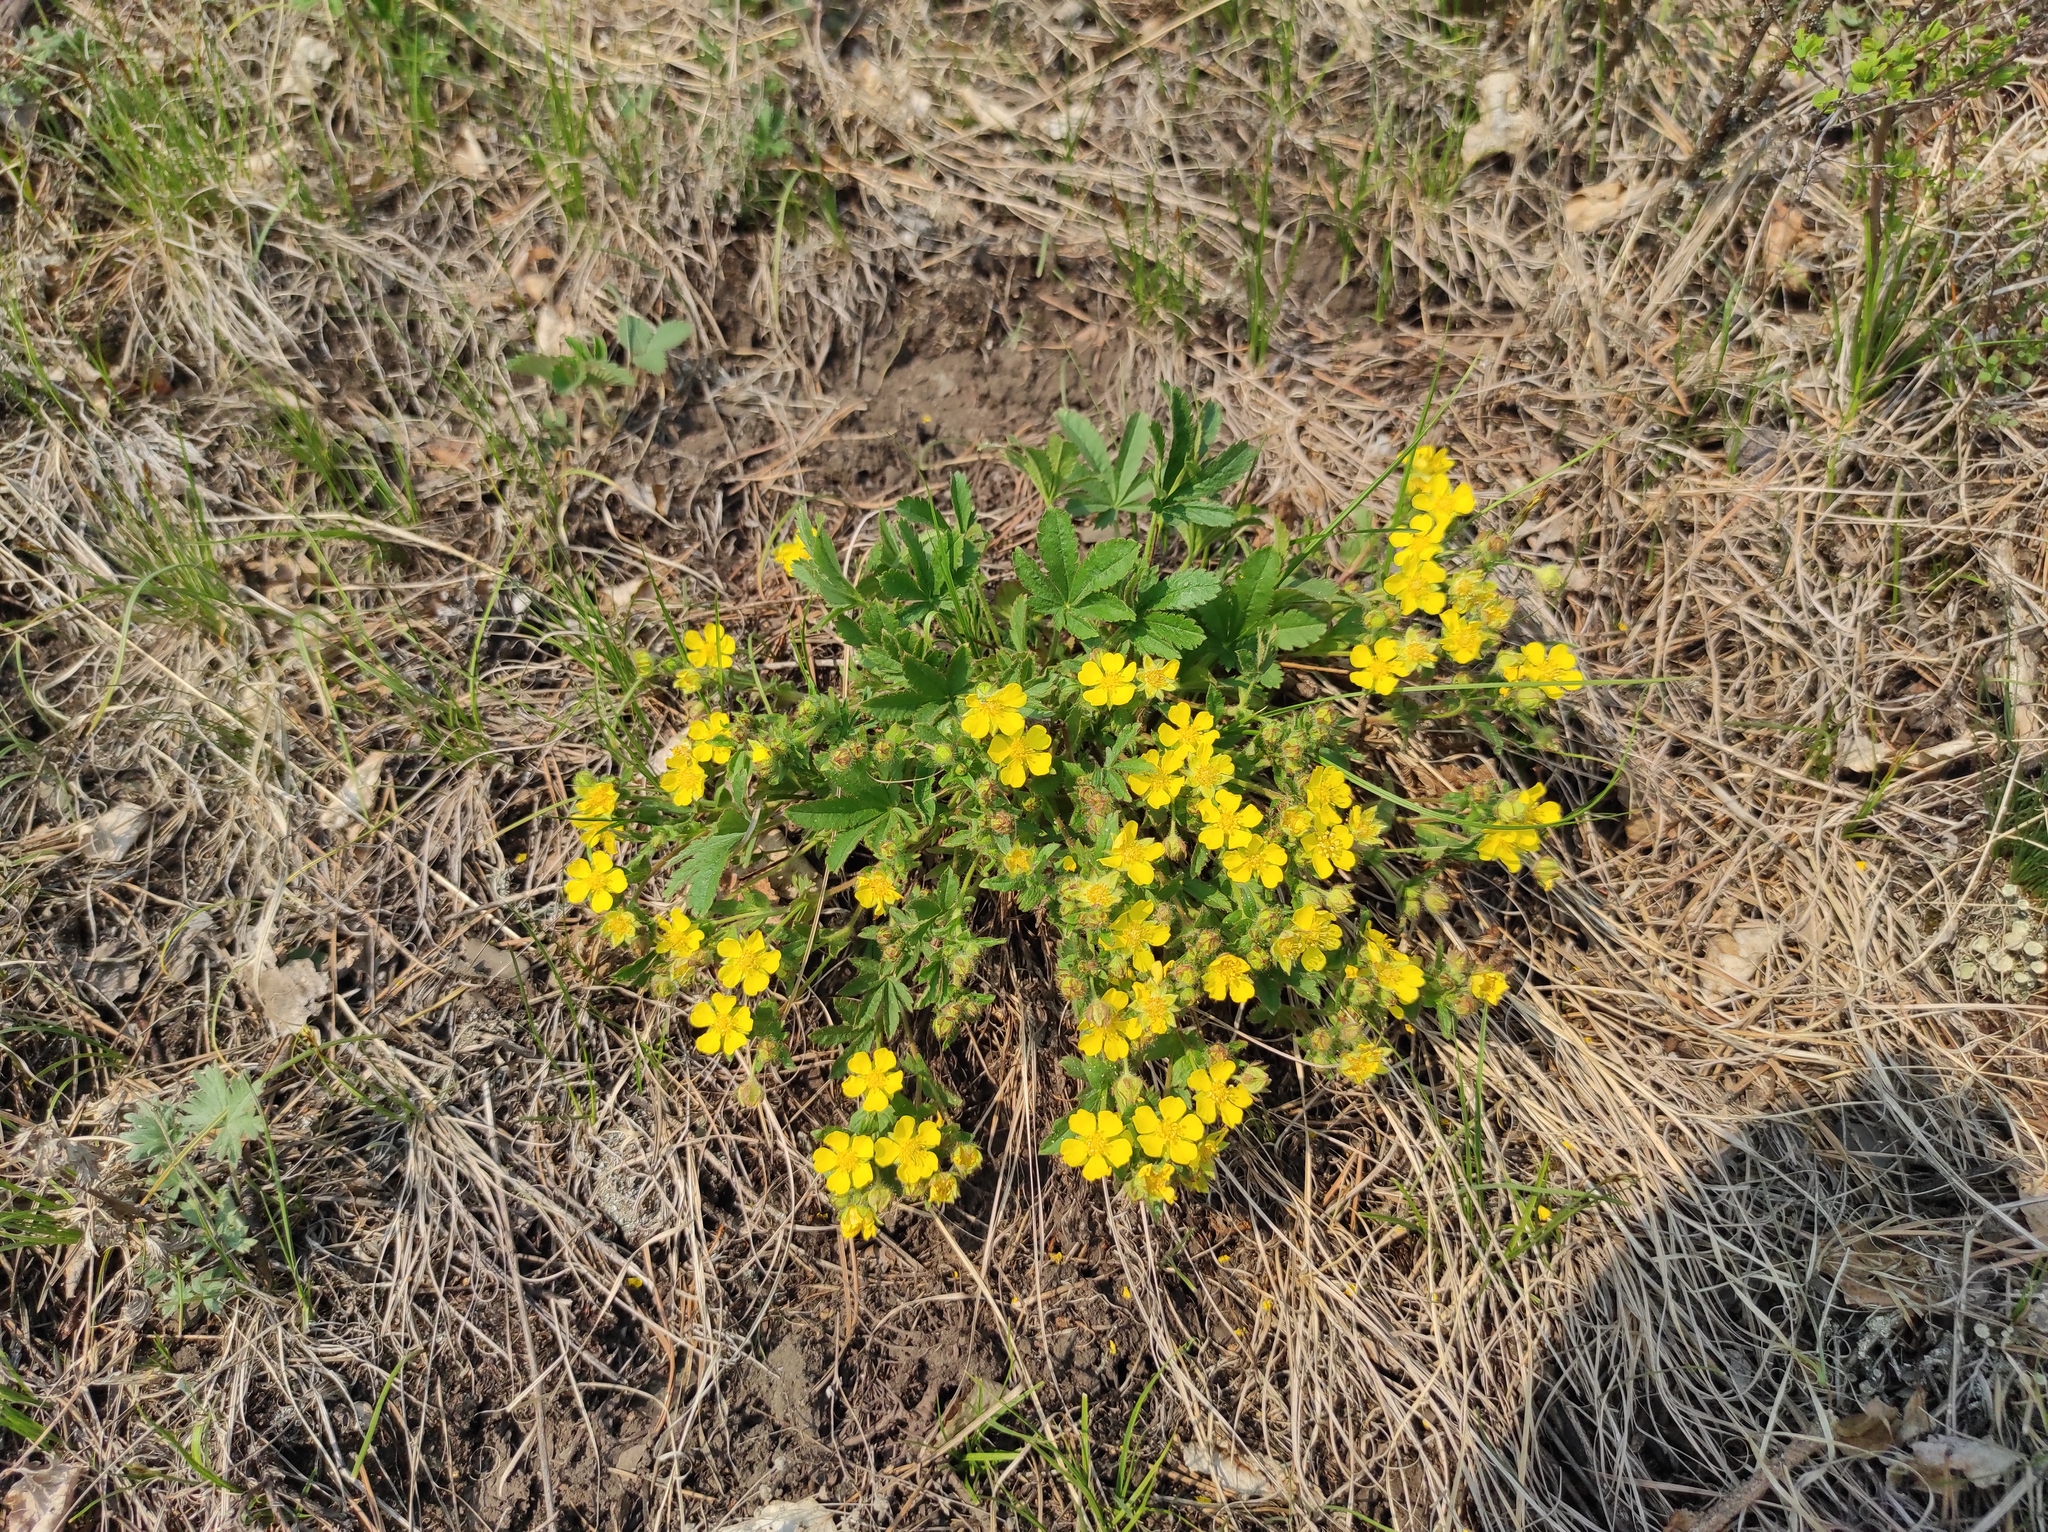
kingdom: Plantae
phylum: Tracheophyta
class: Magnoliopsida
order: Rosales
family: Rosaceae
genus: Potentilla
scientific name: Potentilla humifusa
